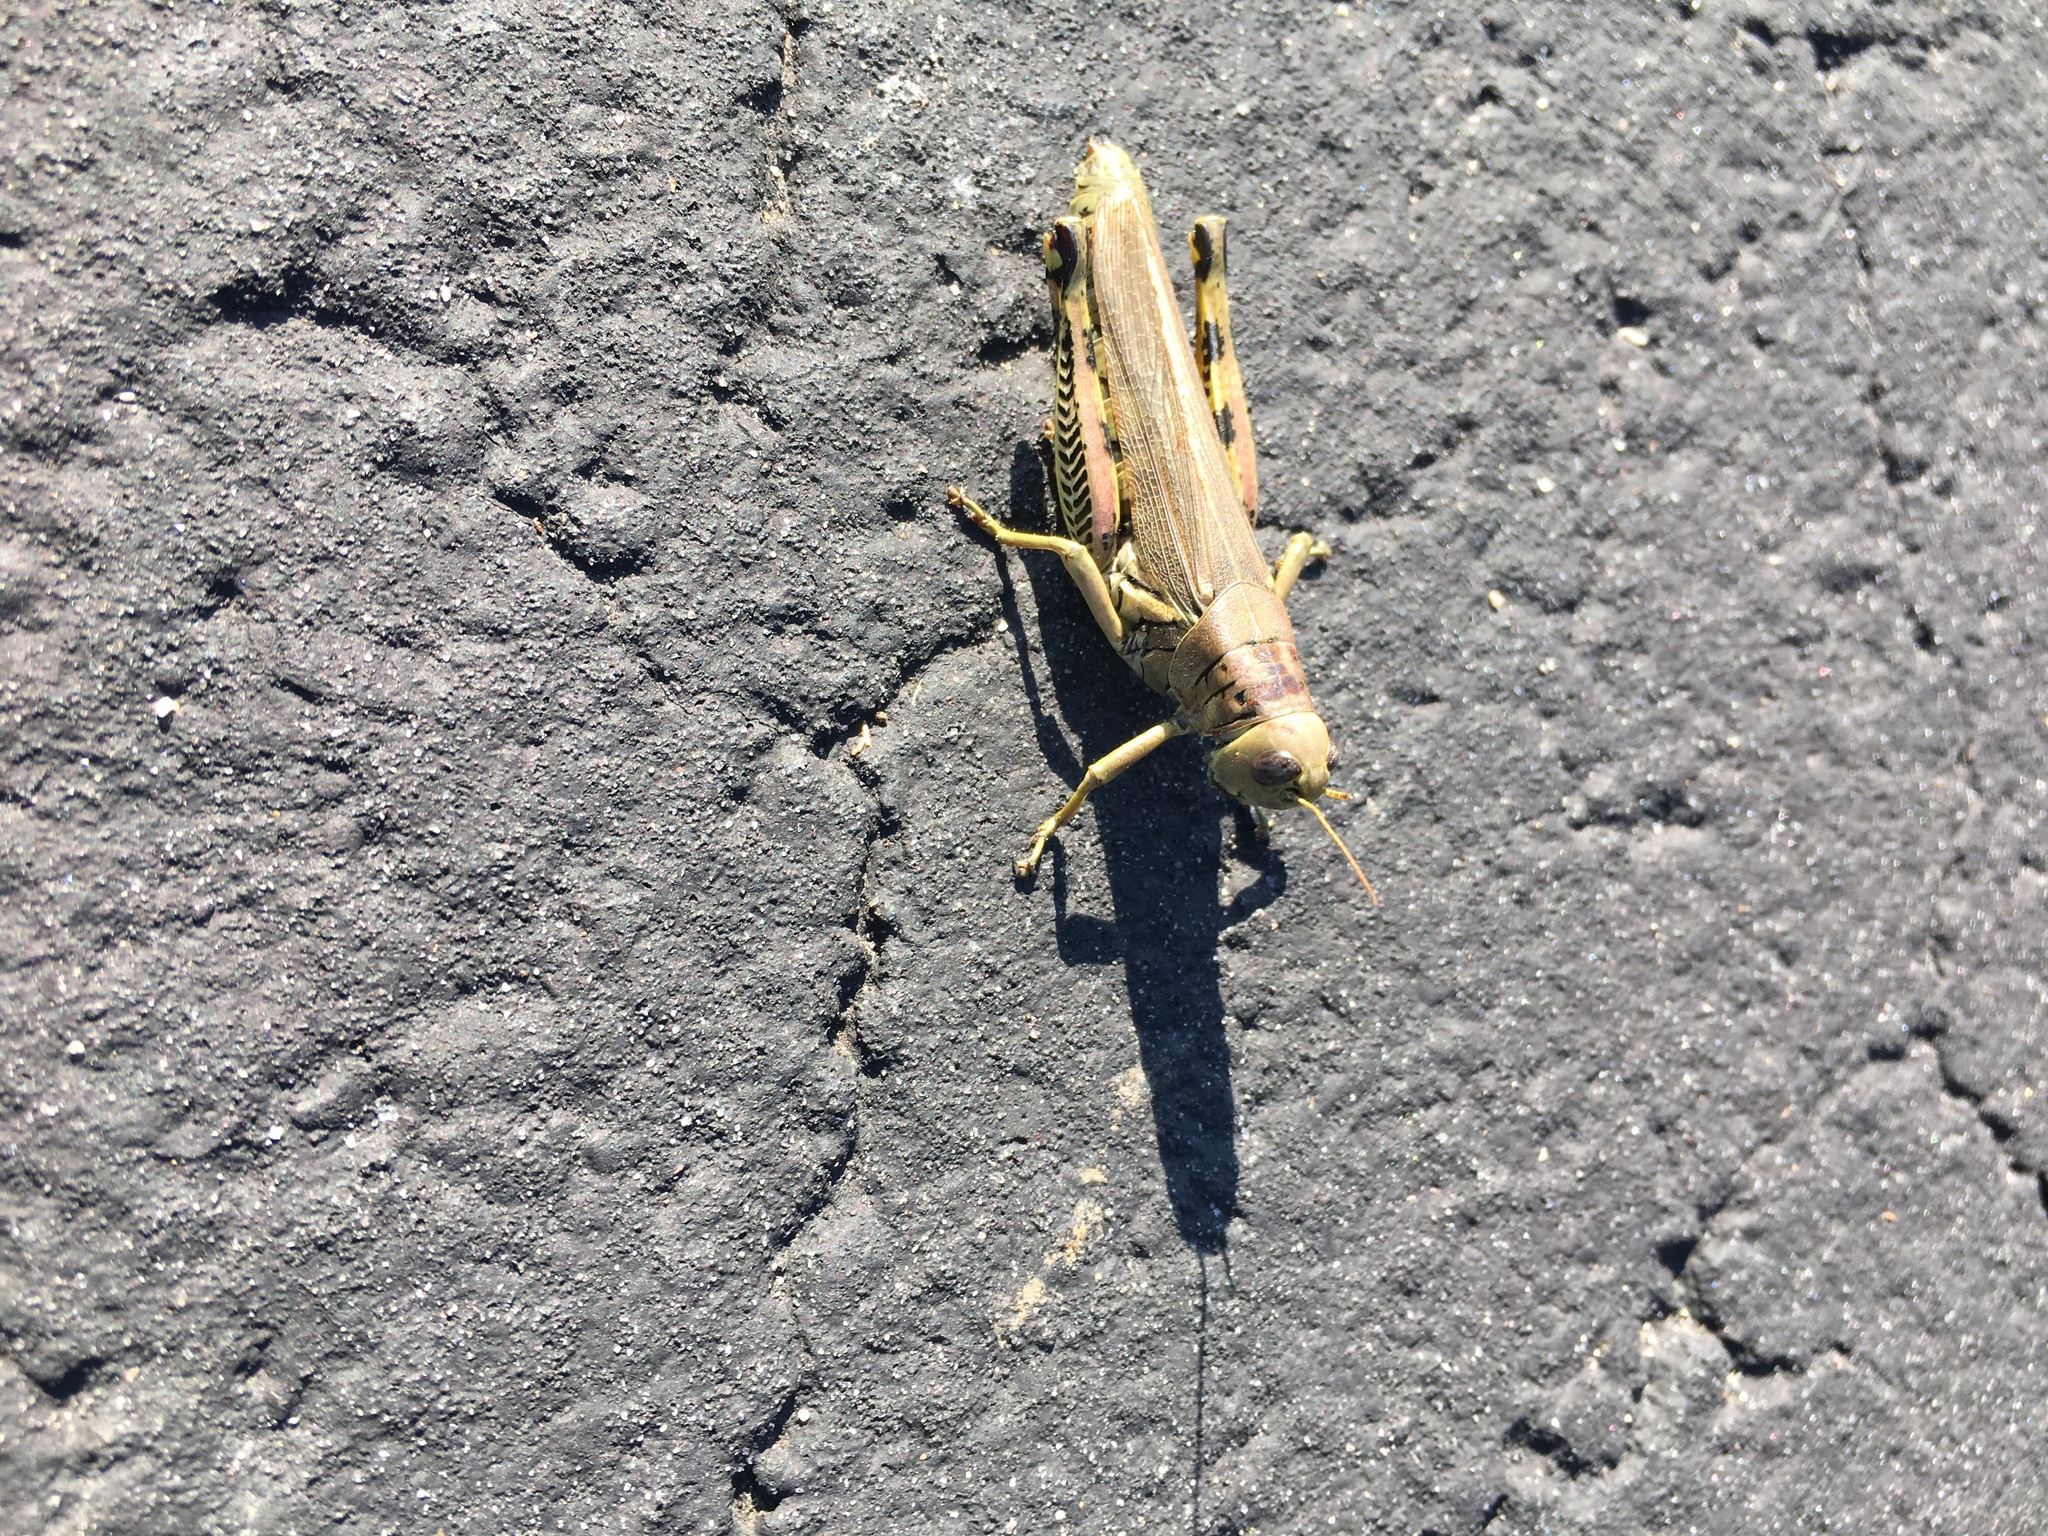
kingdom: Animalia
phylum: Arthropoda
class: Insecta
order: Orthoptera
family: Acrididae
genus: Melanoplus
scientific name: Melanoplus differentialis
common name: Differential grasshopper
